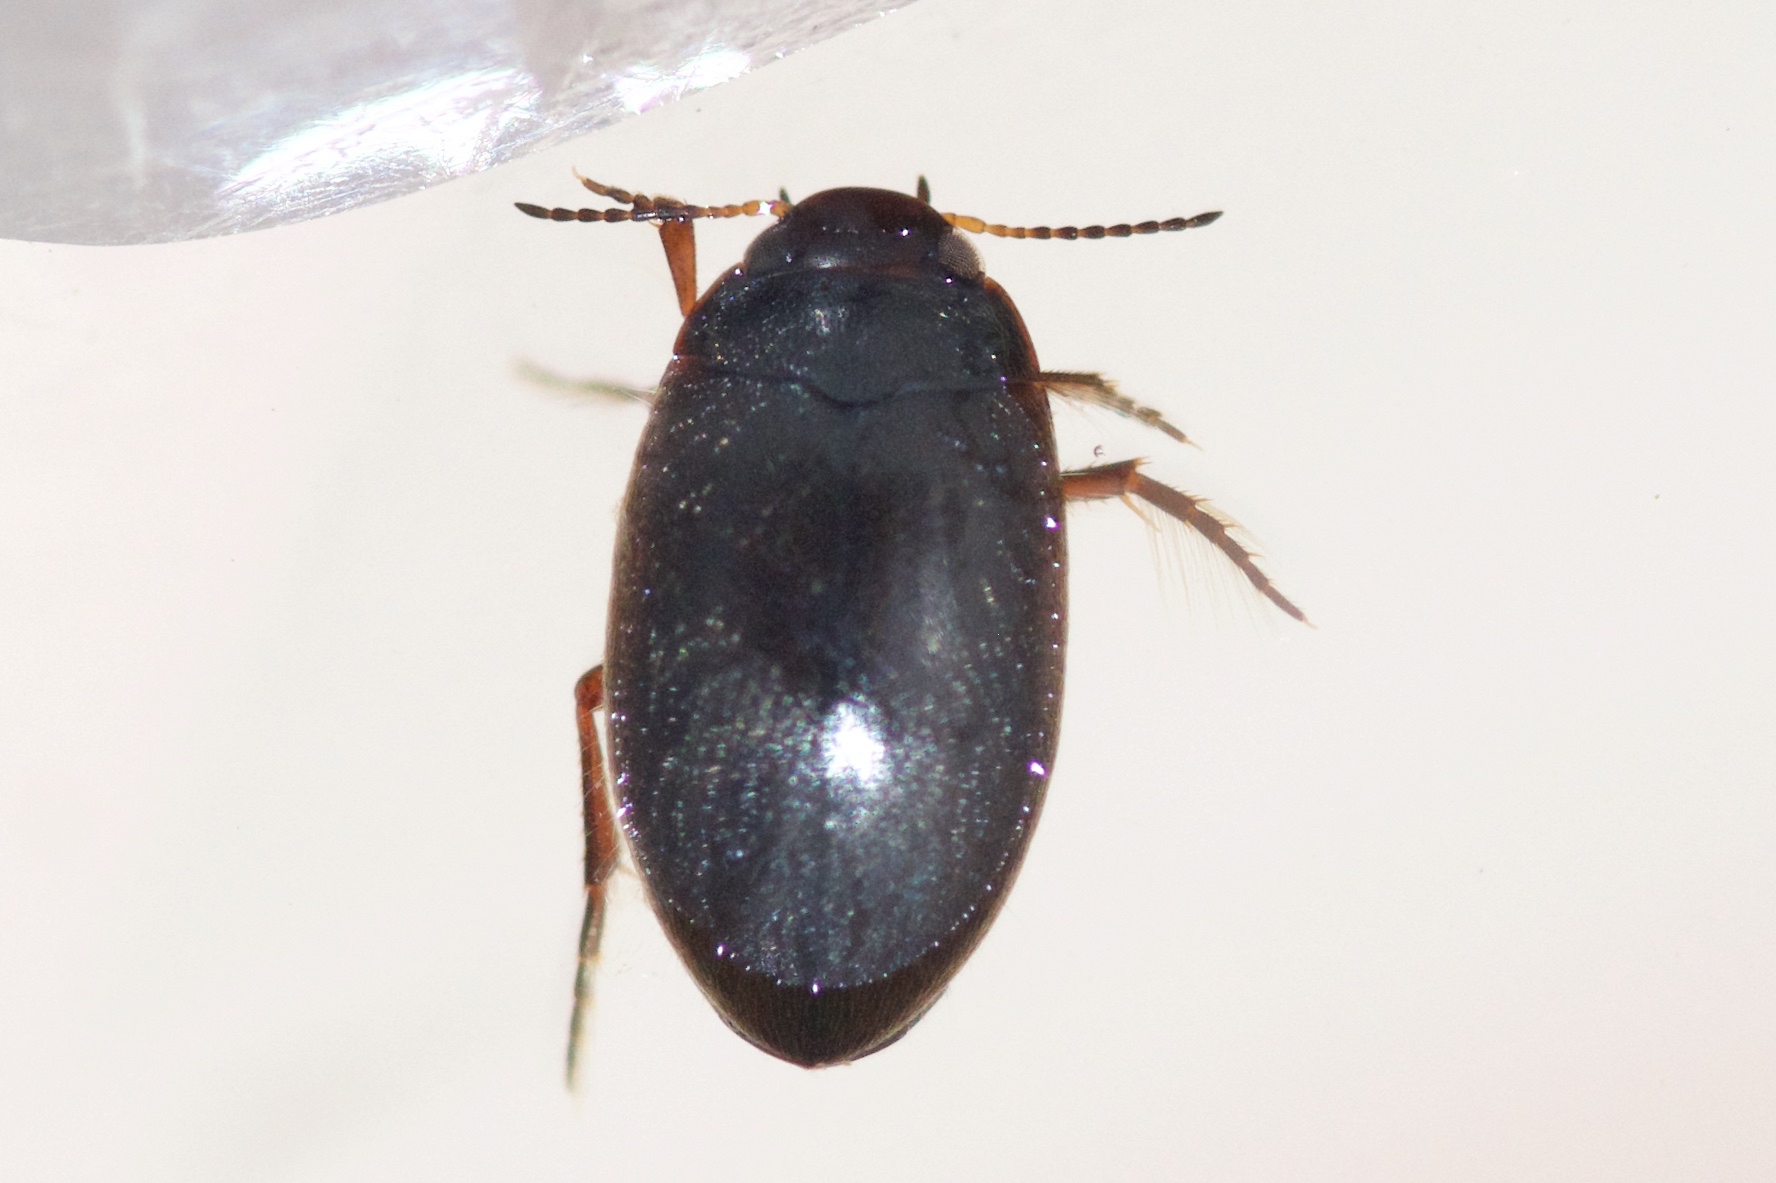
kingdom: Animalia
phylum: Arthropoda
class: Insecta
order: Coleoptera
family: Dytiscidae
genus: Hydroporus
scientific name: Hydroporus
